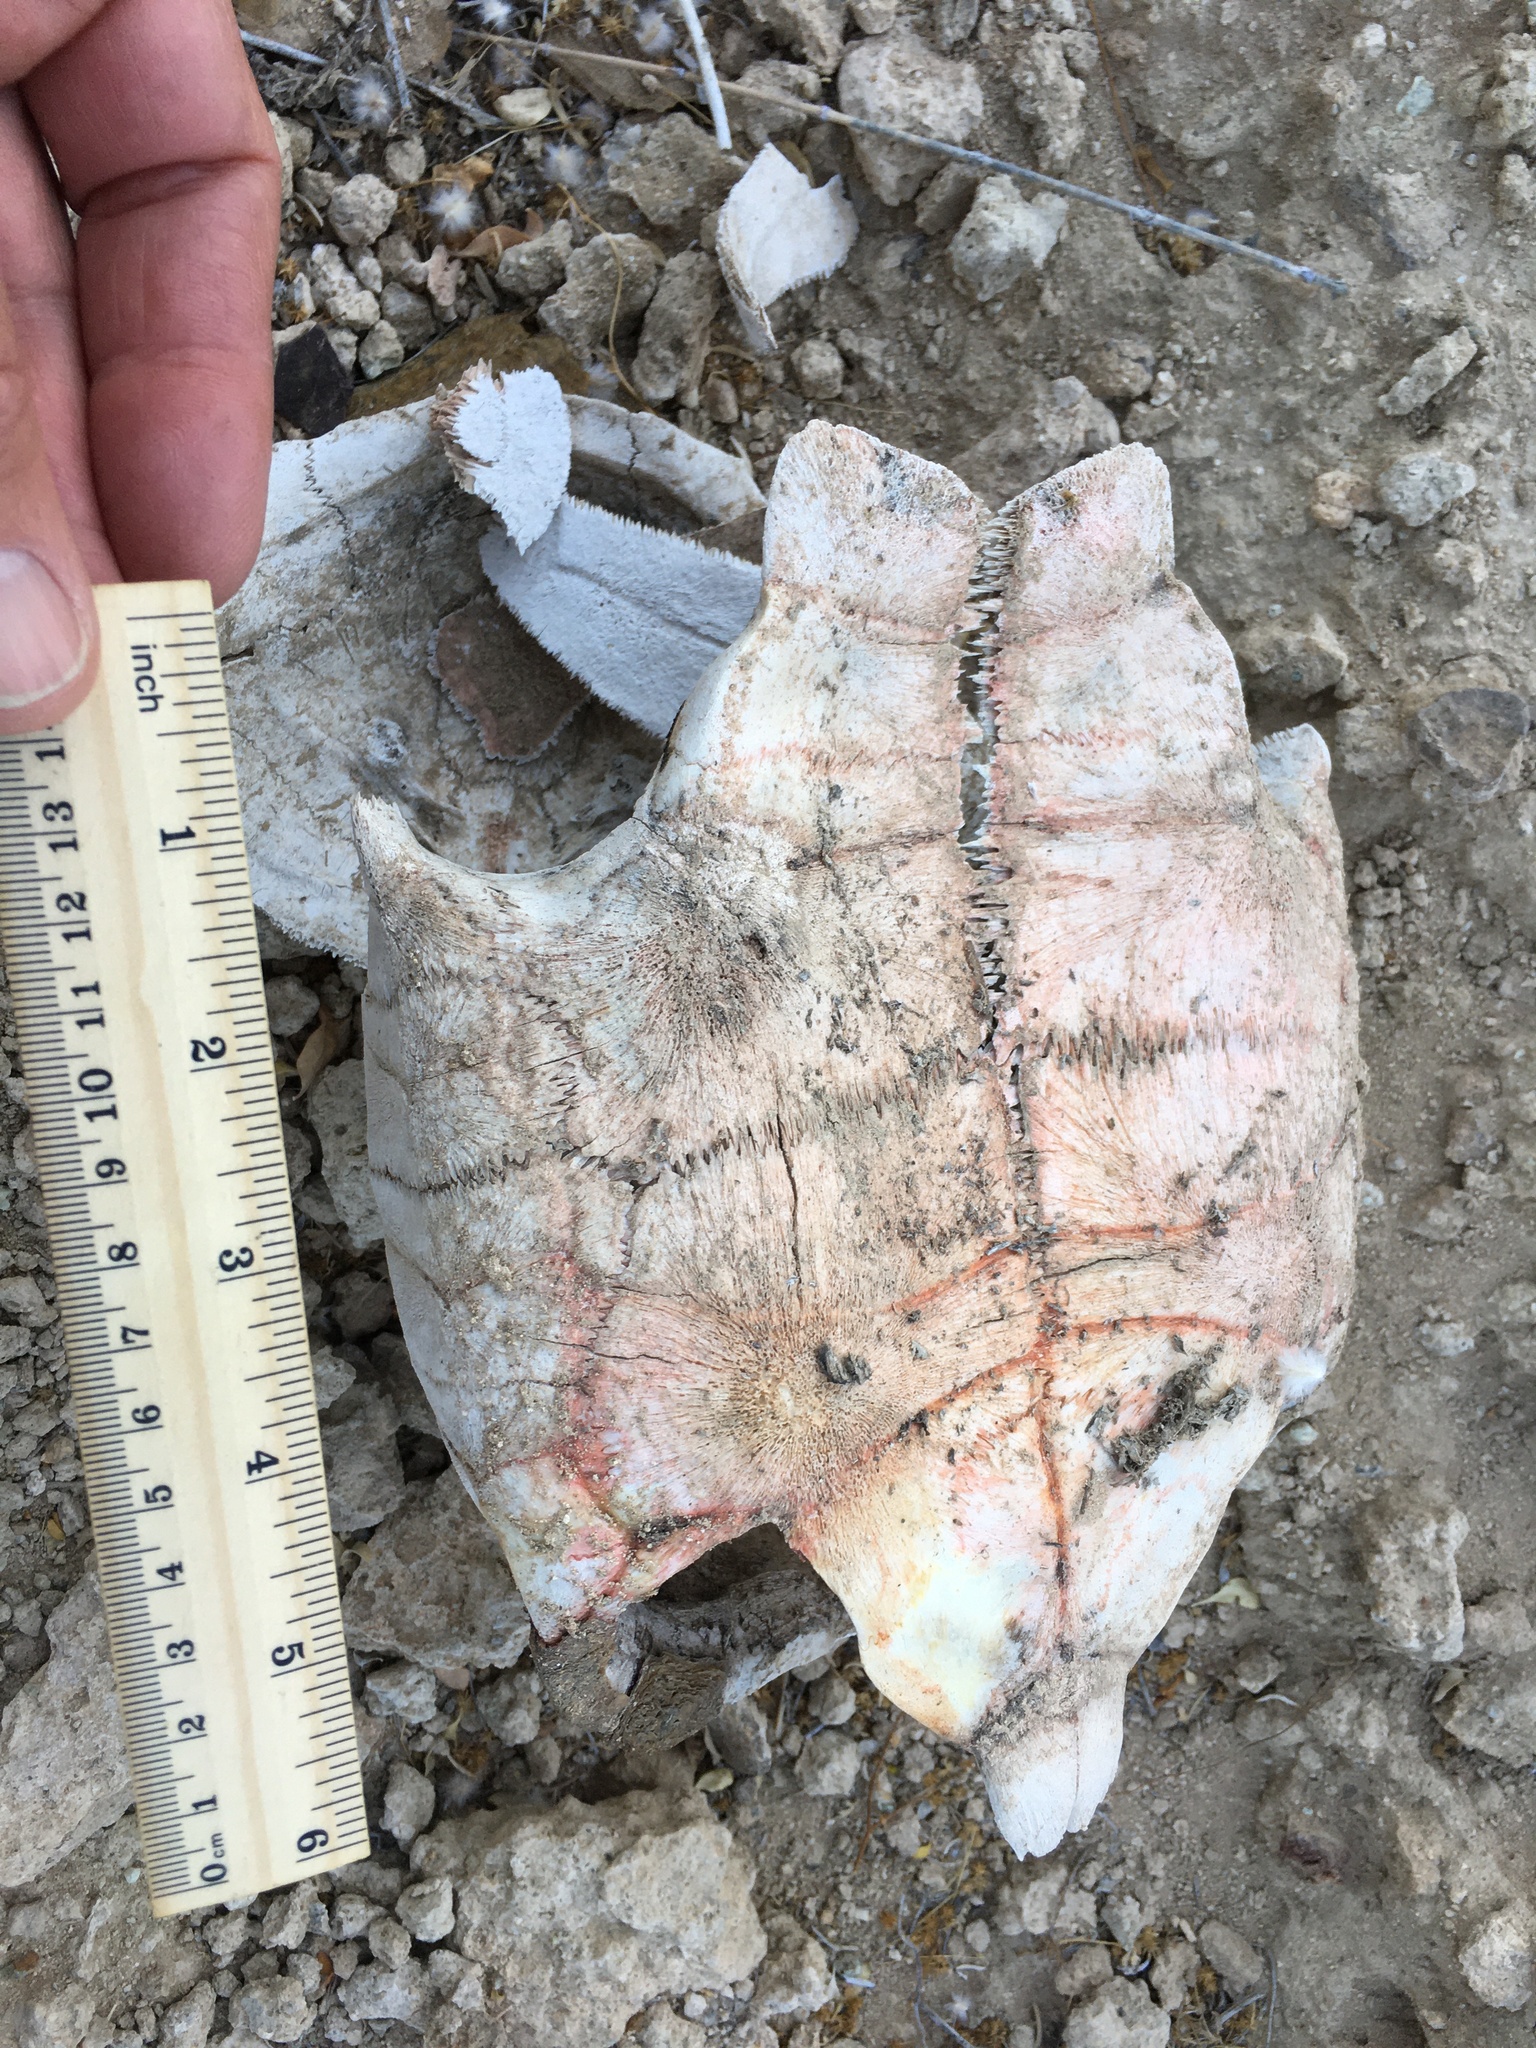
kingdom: Animalia
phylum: Chordata
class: Testudines
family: Testudinidae
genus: Gopherus
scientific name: Gopherus agassizii
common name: Mojave desert tortoise
